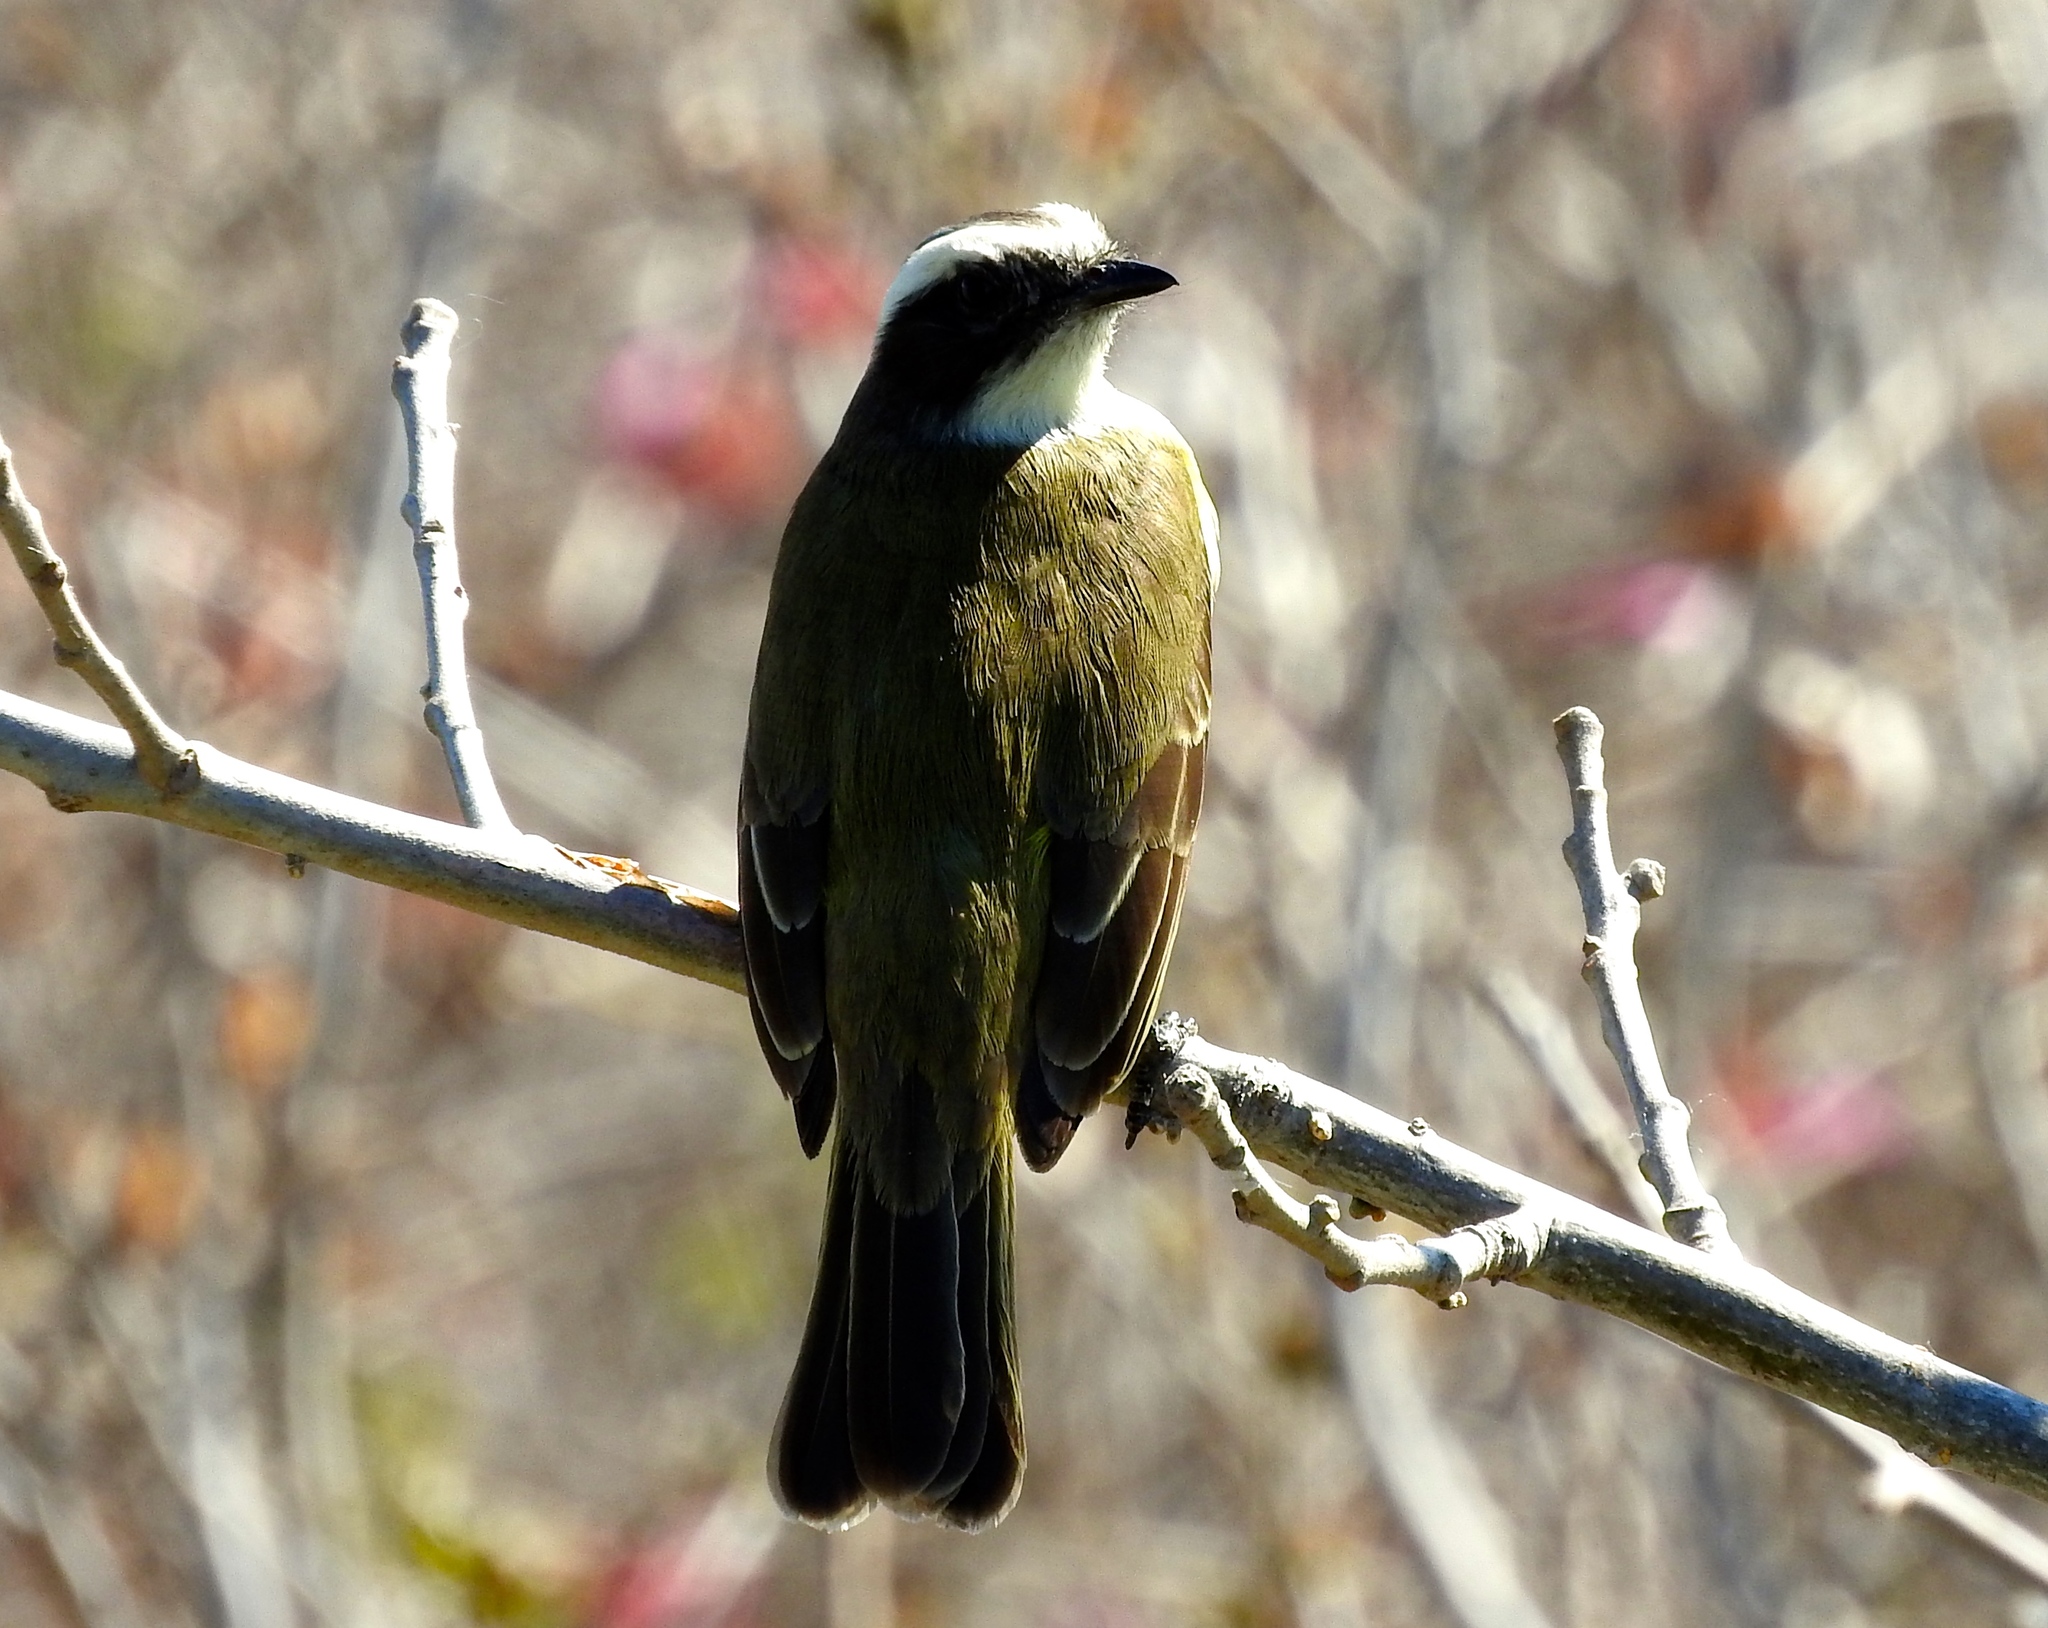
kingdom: Animalia
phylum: Chordata
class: Aves
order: Passeriformes
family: Tyrannidae
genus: Myiozetetes
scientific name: Myiozetetes similis
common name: Social flycatcher
